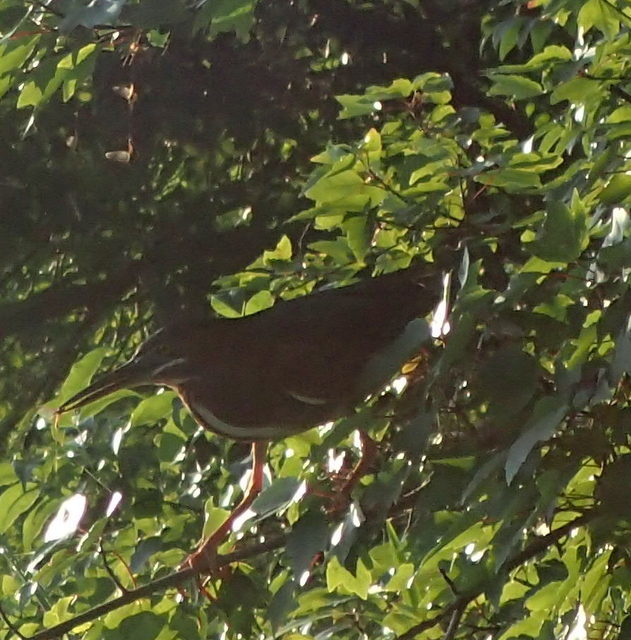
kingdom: Animalia
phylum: Chordata
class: Aves
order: Pelecaniformes
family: Ardeidae
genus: Butorides
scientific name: Butorides virescens
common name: Green heron
